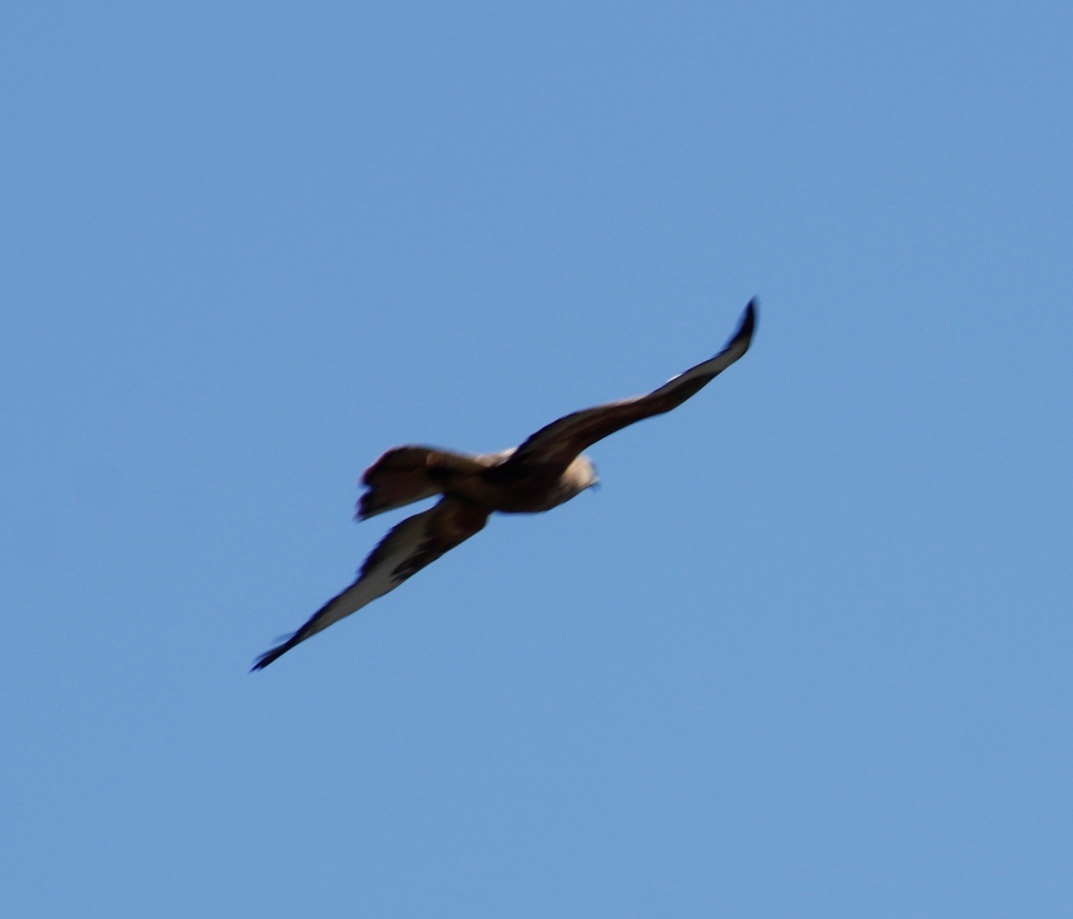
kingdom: Animalia
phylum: Chordata
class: Aves
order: Accipitriformes
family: Accipitridae
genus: Buteo
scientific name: Buteo rufofuscus
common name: Jackal buzzard
